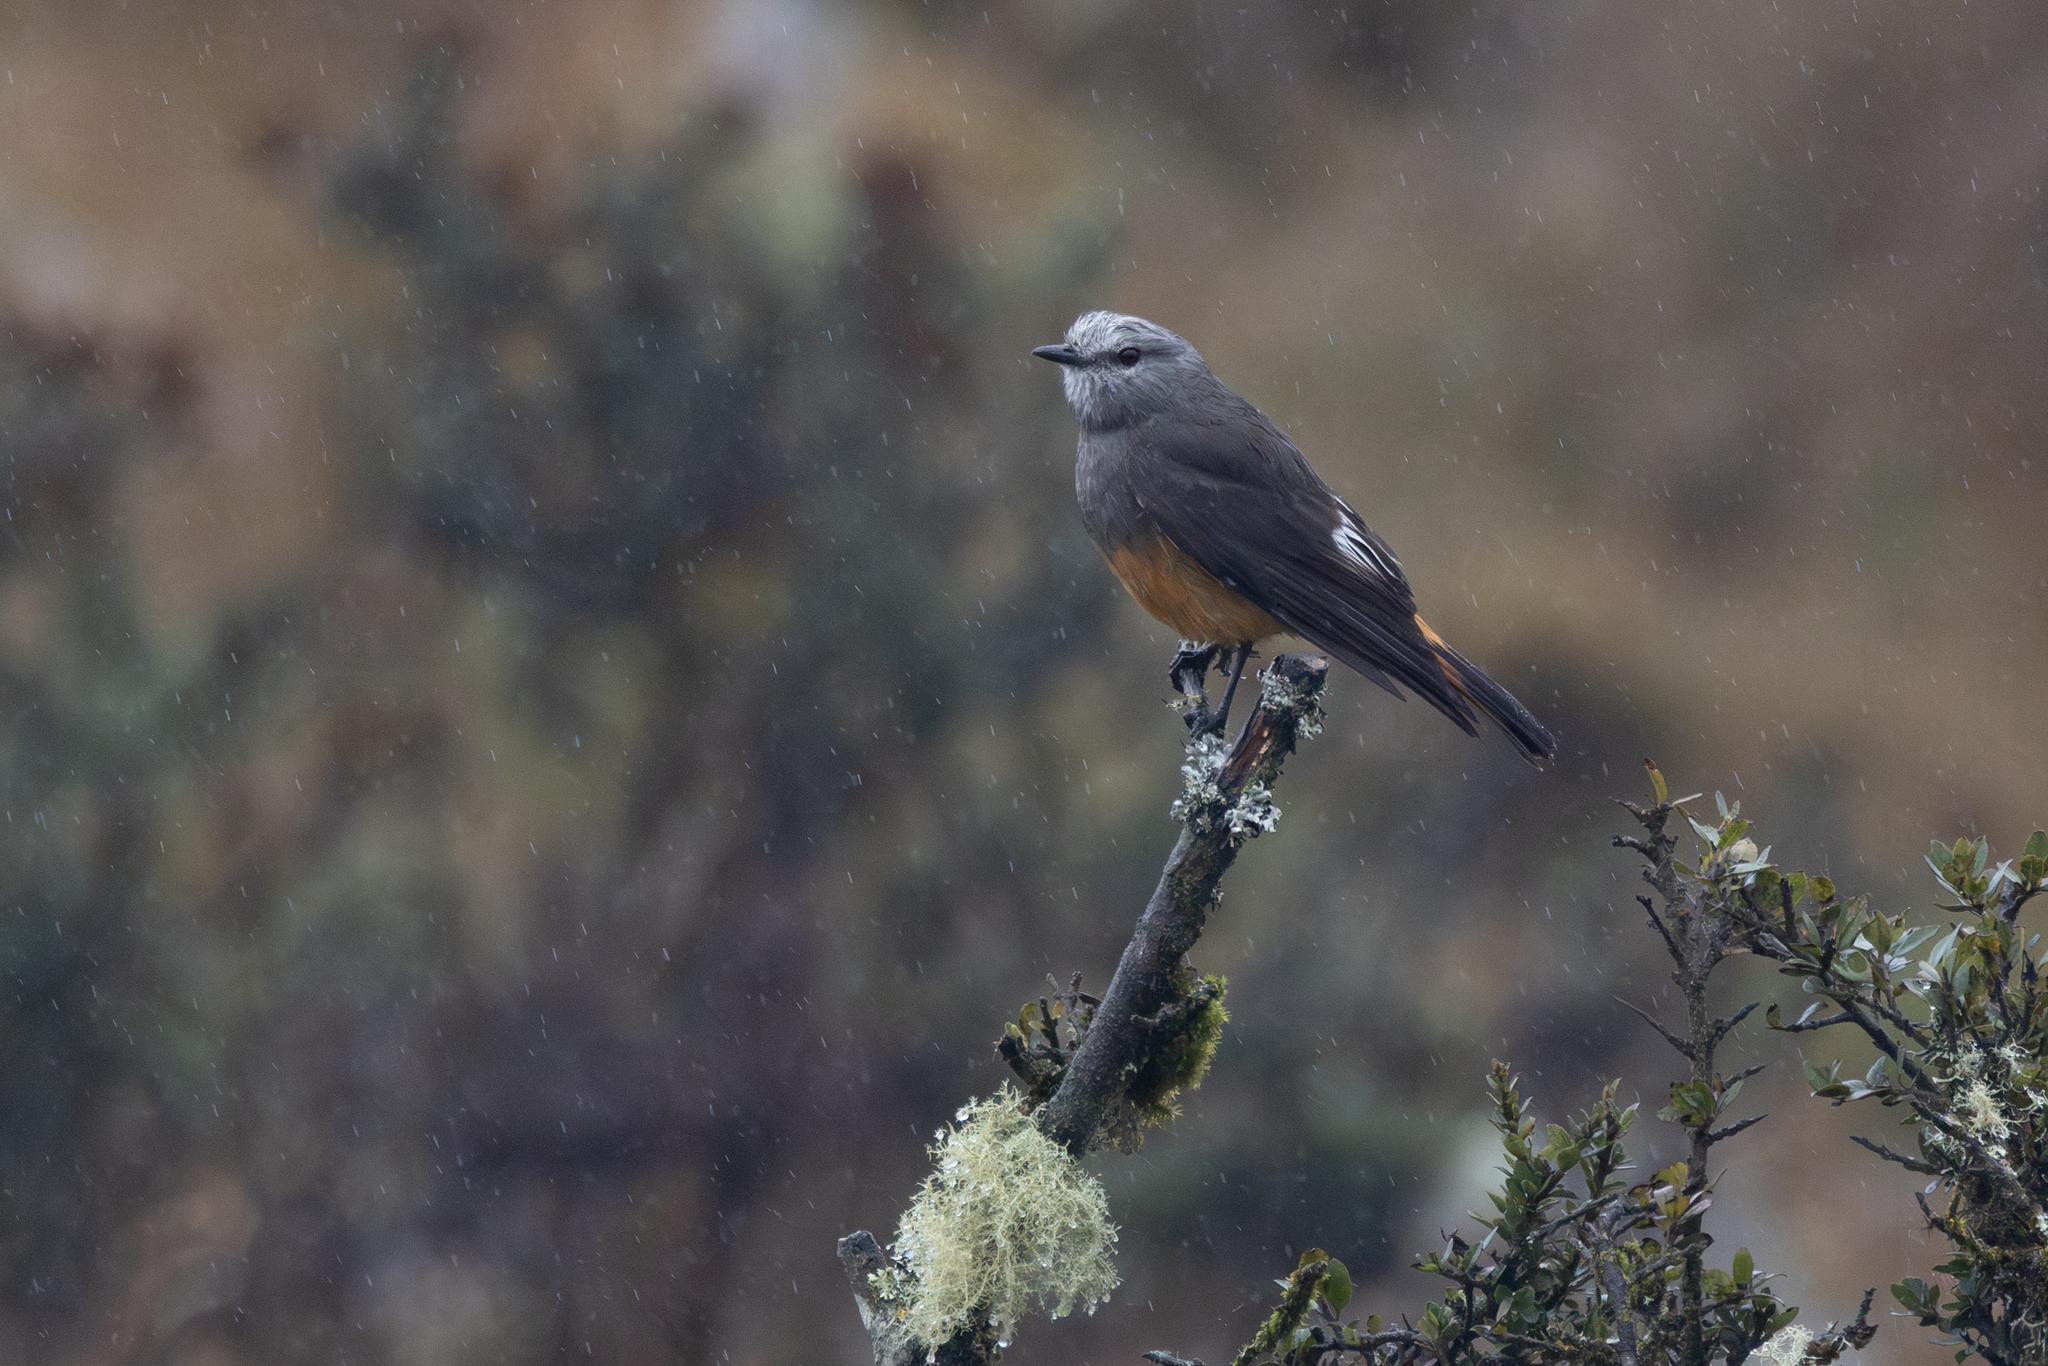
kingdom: Animalia
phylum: Chordata
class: Aves
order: Passeriformes
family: Tyrannidae
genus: Cnemarchus
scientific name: Cnemarchus erythropygius
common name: Red-rumped bush tyrant
